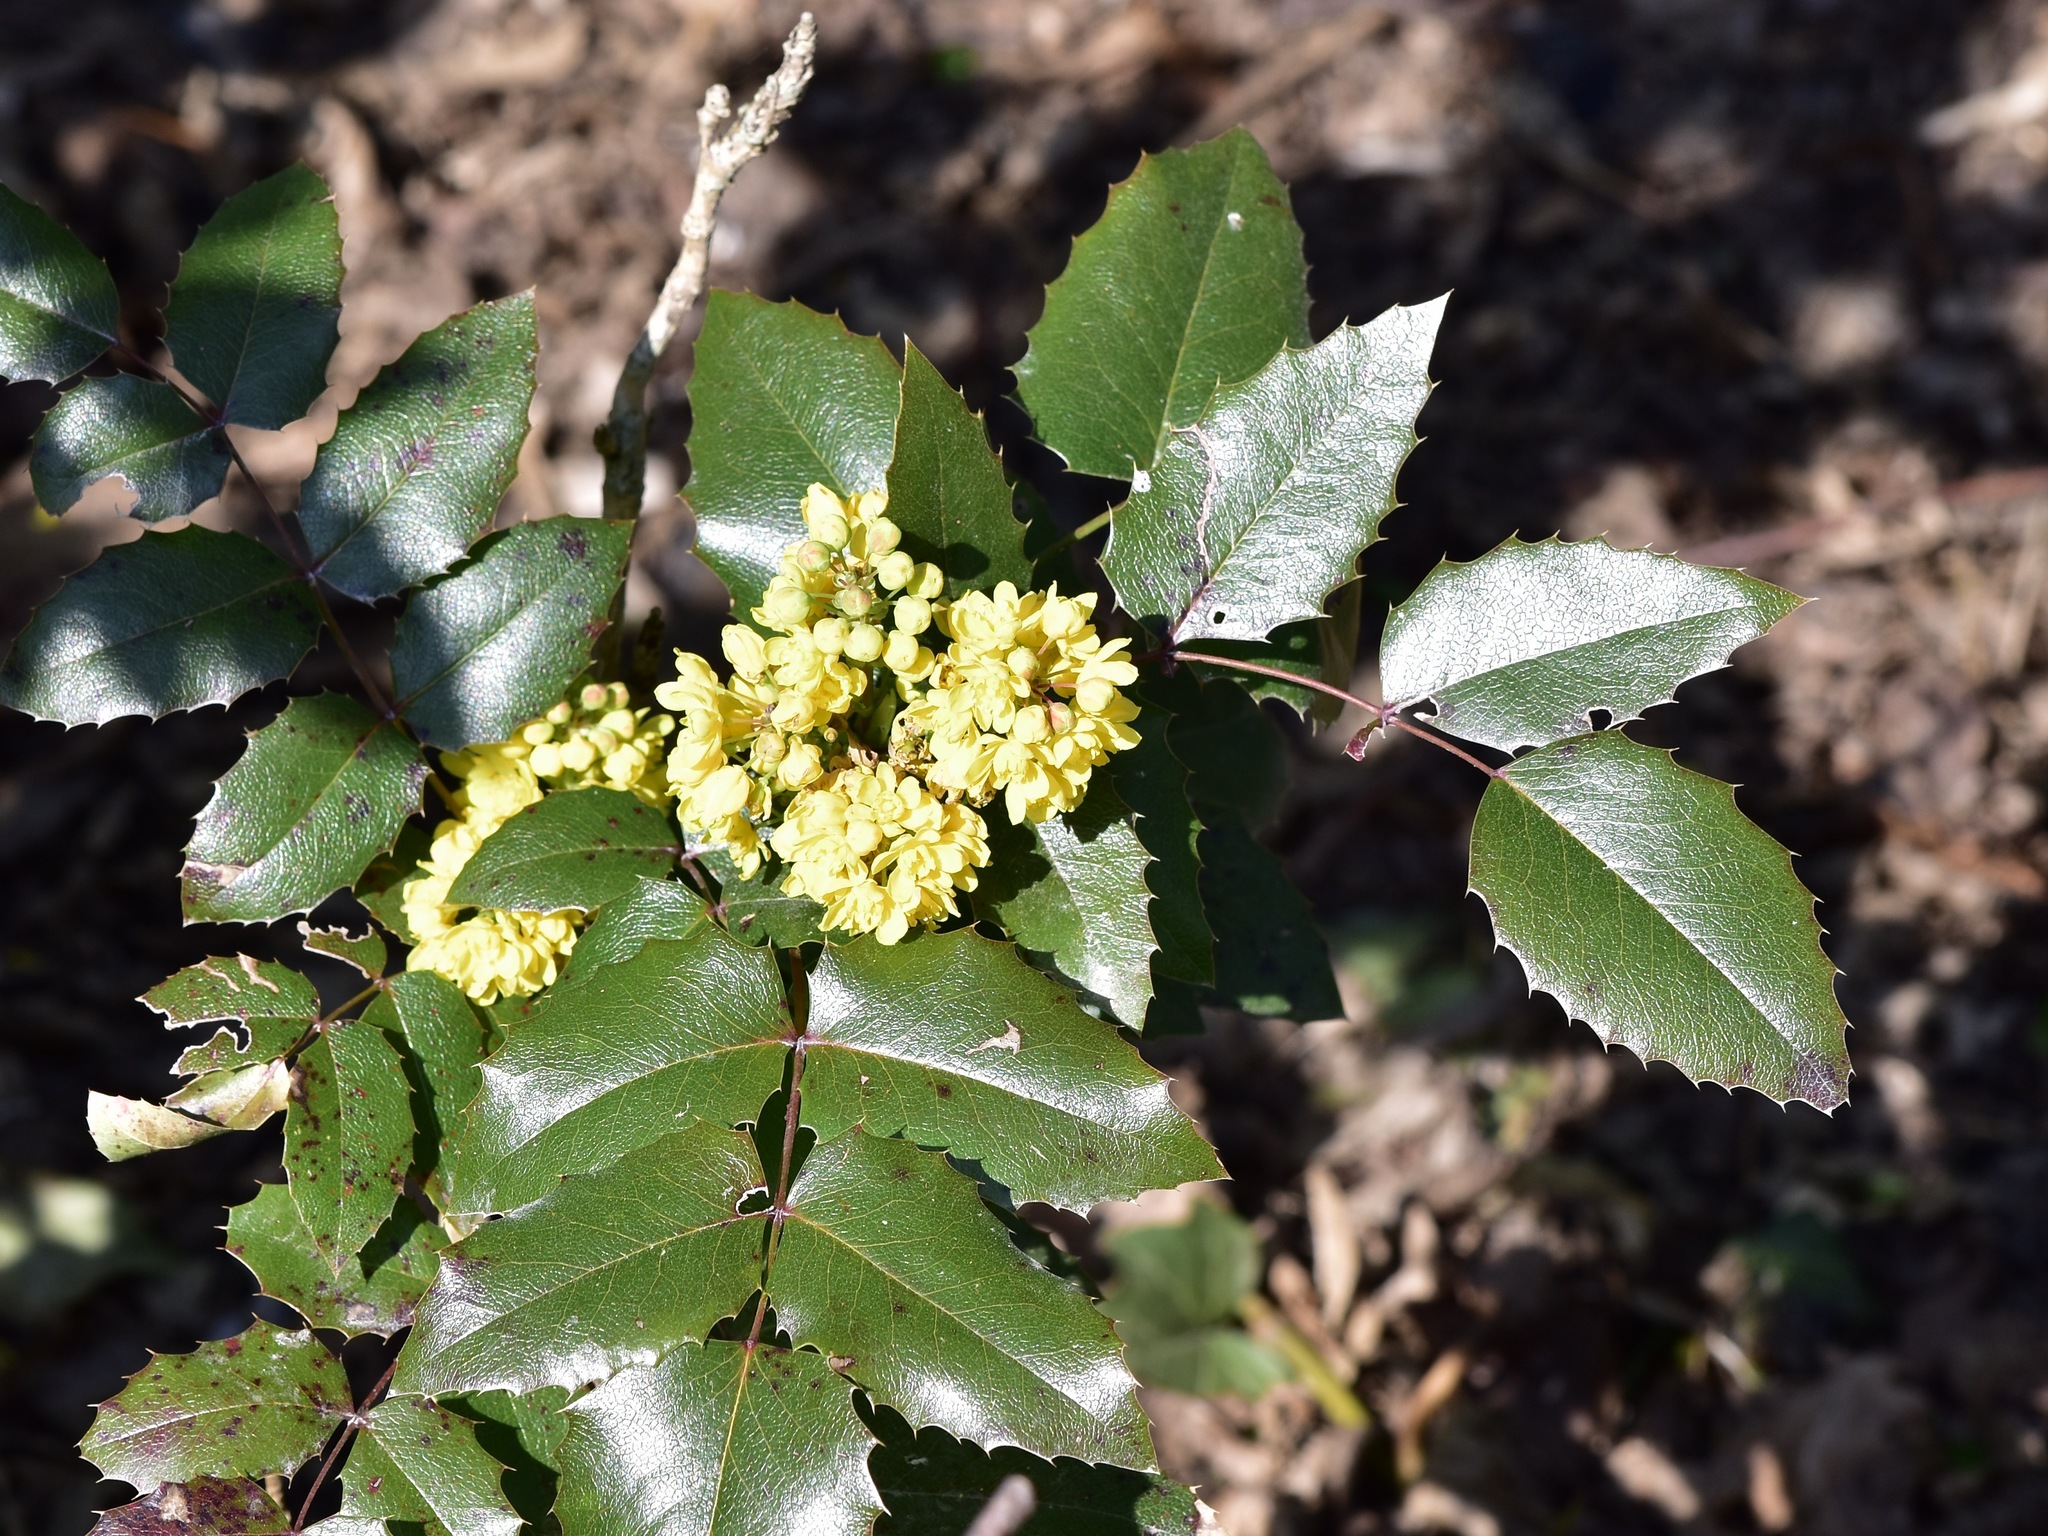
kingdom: Plantae
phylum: Tracheophyta
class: Magnoliopsida
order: Ranunculales
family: Berberidaceae
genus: Mahonia
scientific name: Mahonia aquifolium
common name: Oregon-grape
